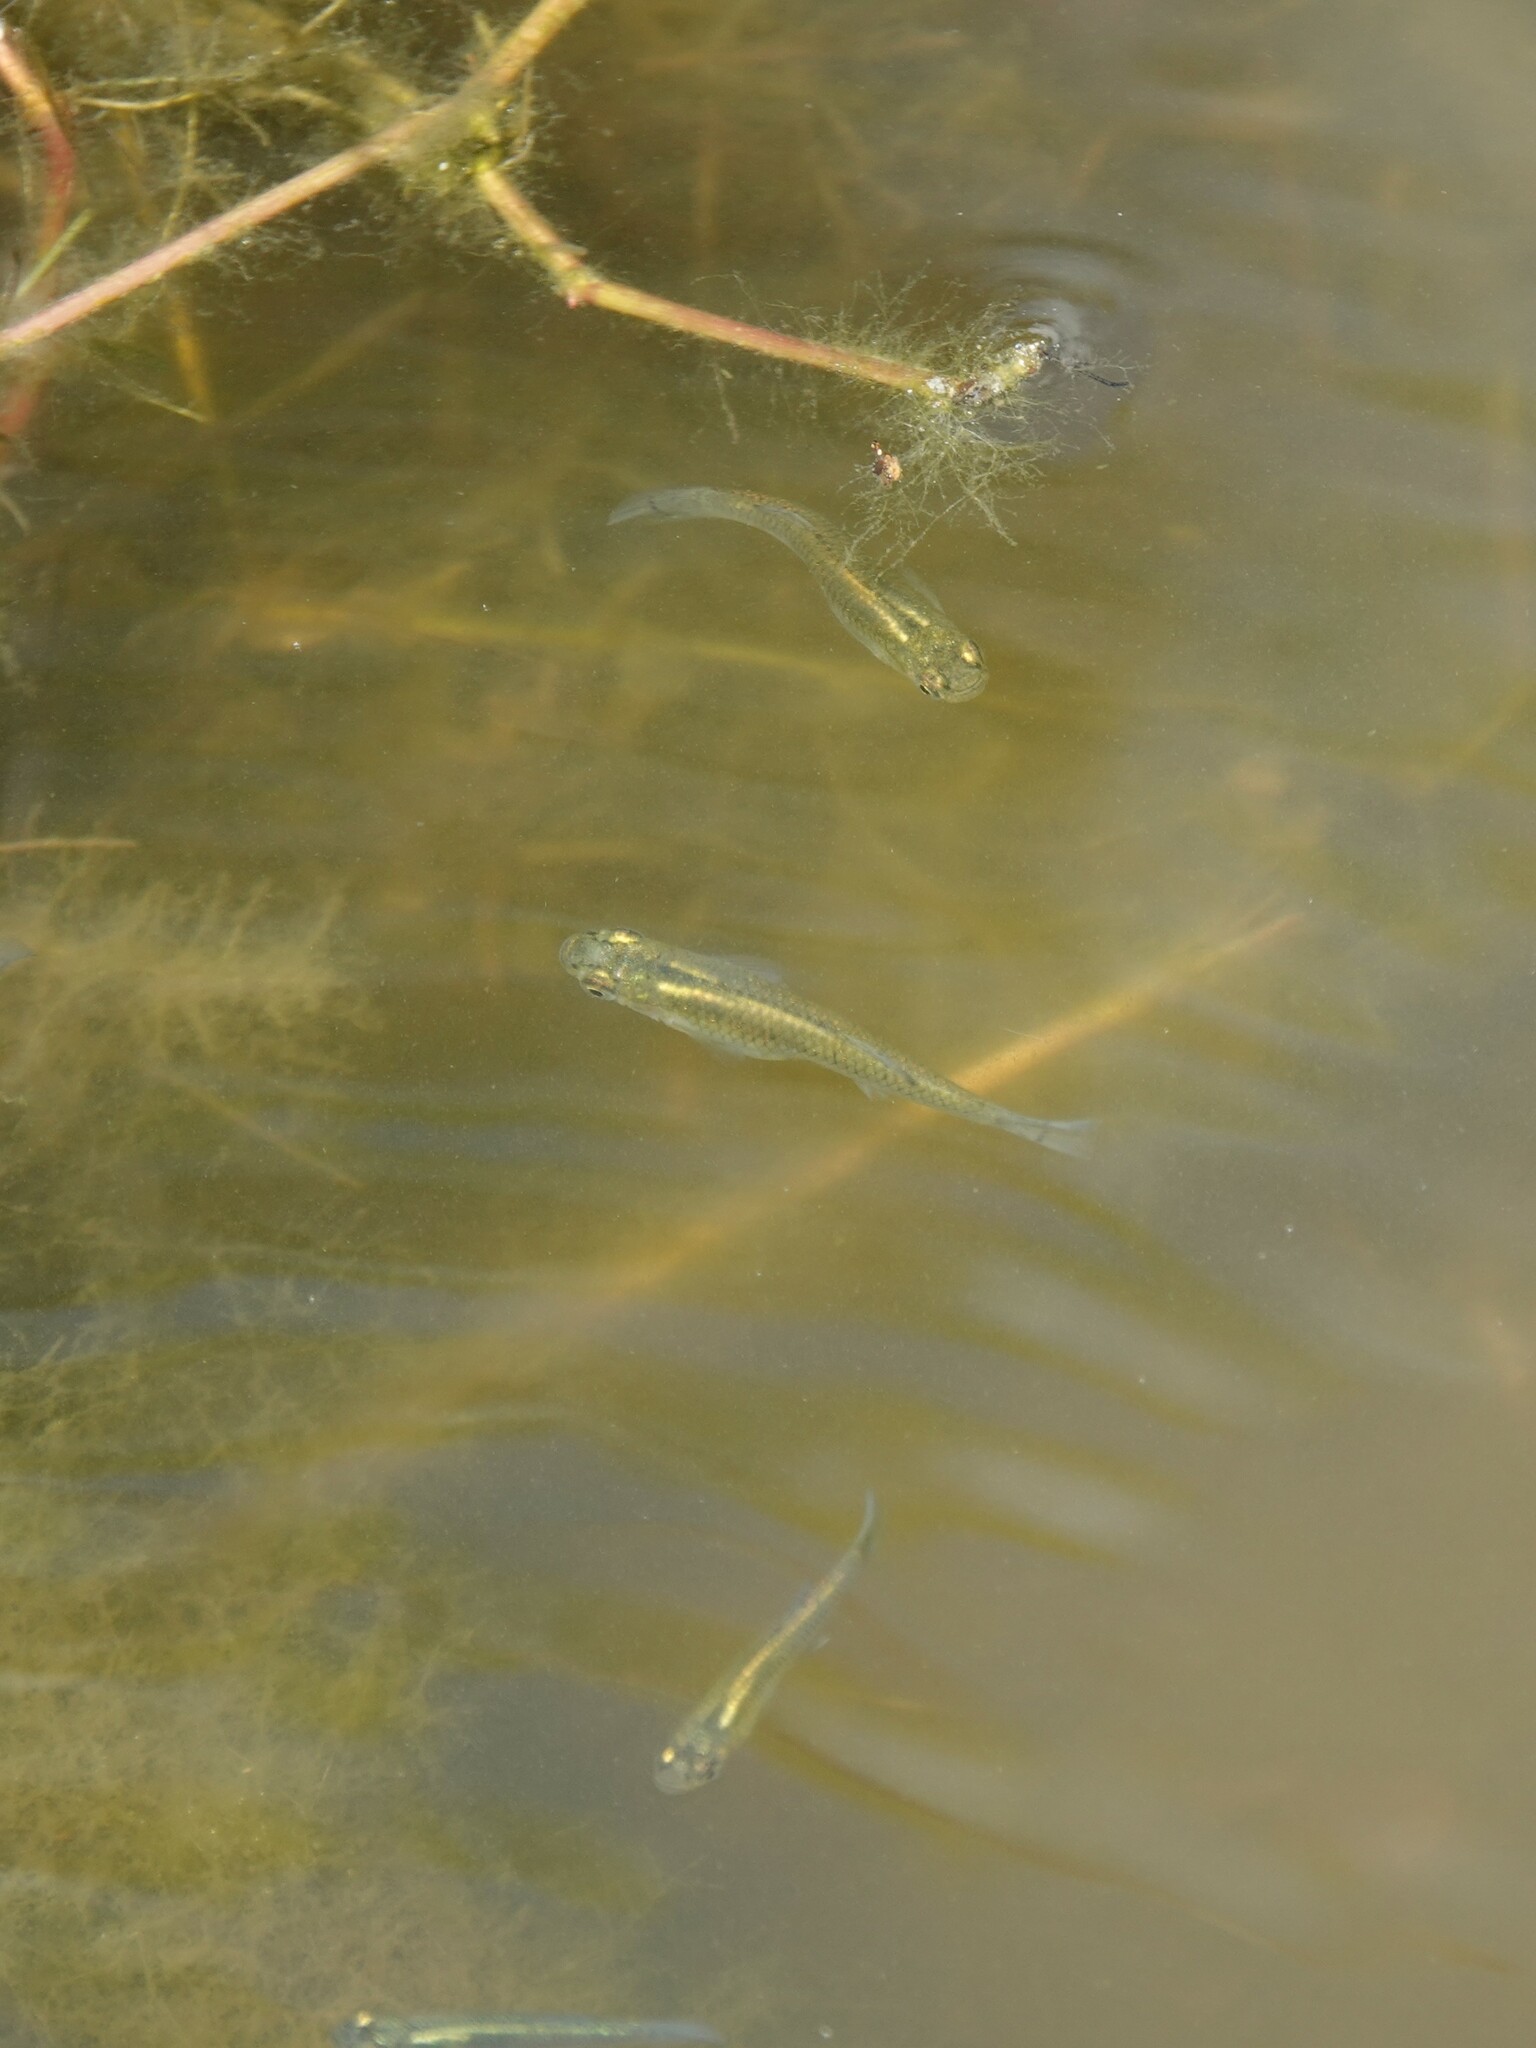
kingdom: Animalia
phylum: Chordata
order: Cyprinodontiformes
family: Poeciliidae
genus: Gambusia
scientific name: Gambusia holbrooki
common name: Eastern mosquitofish
